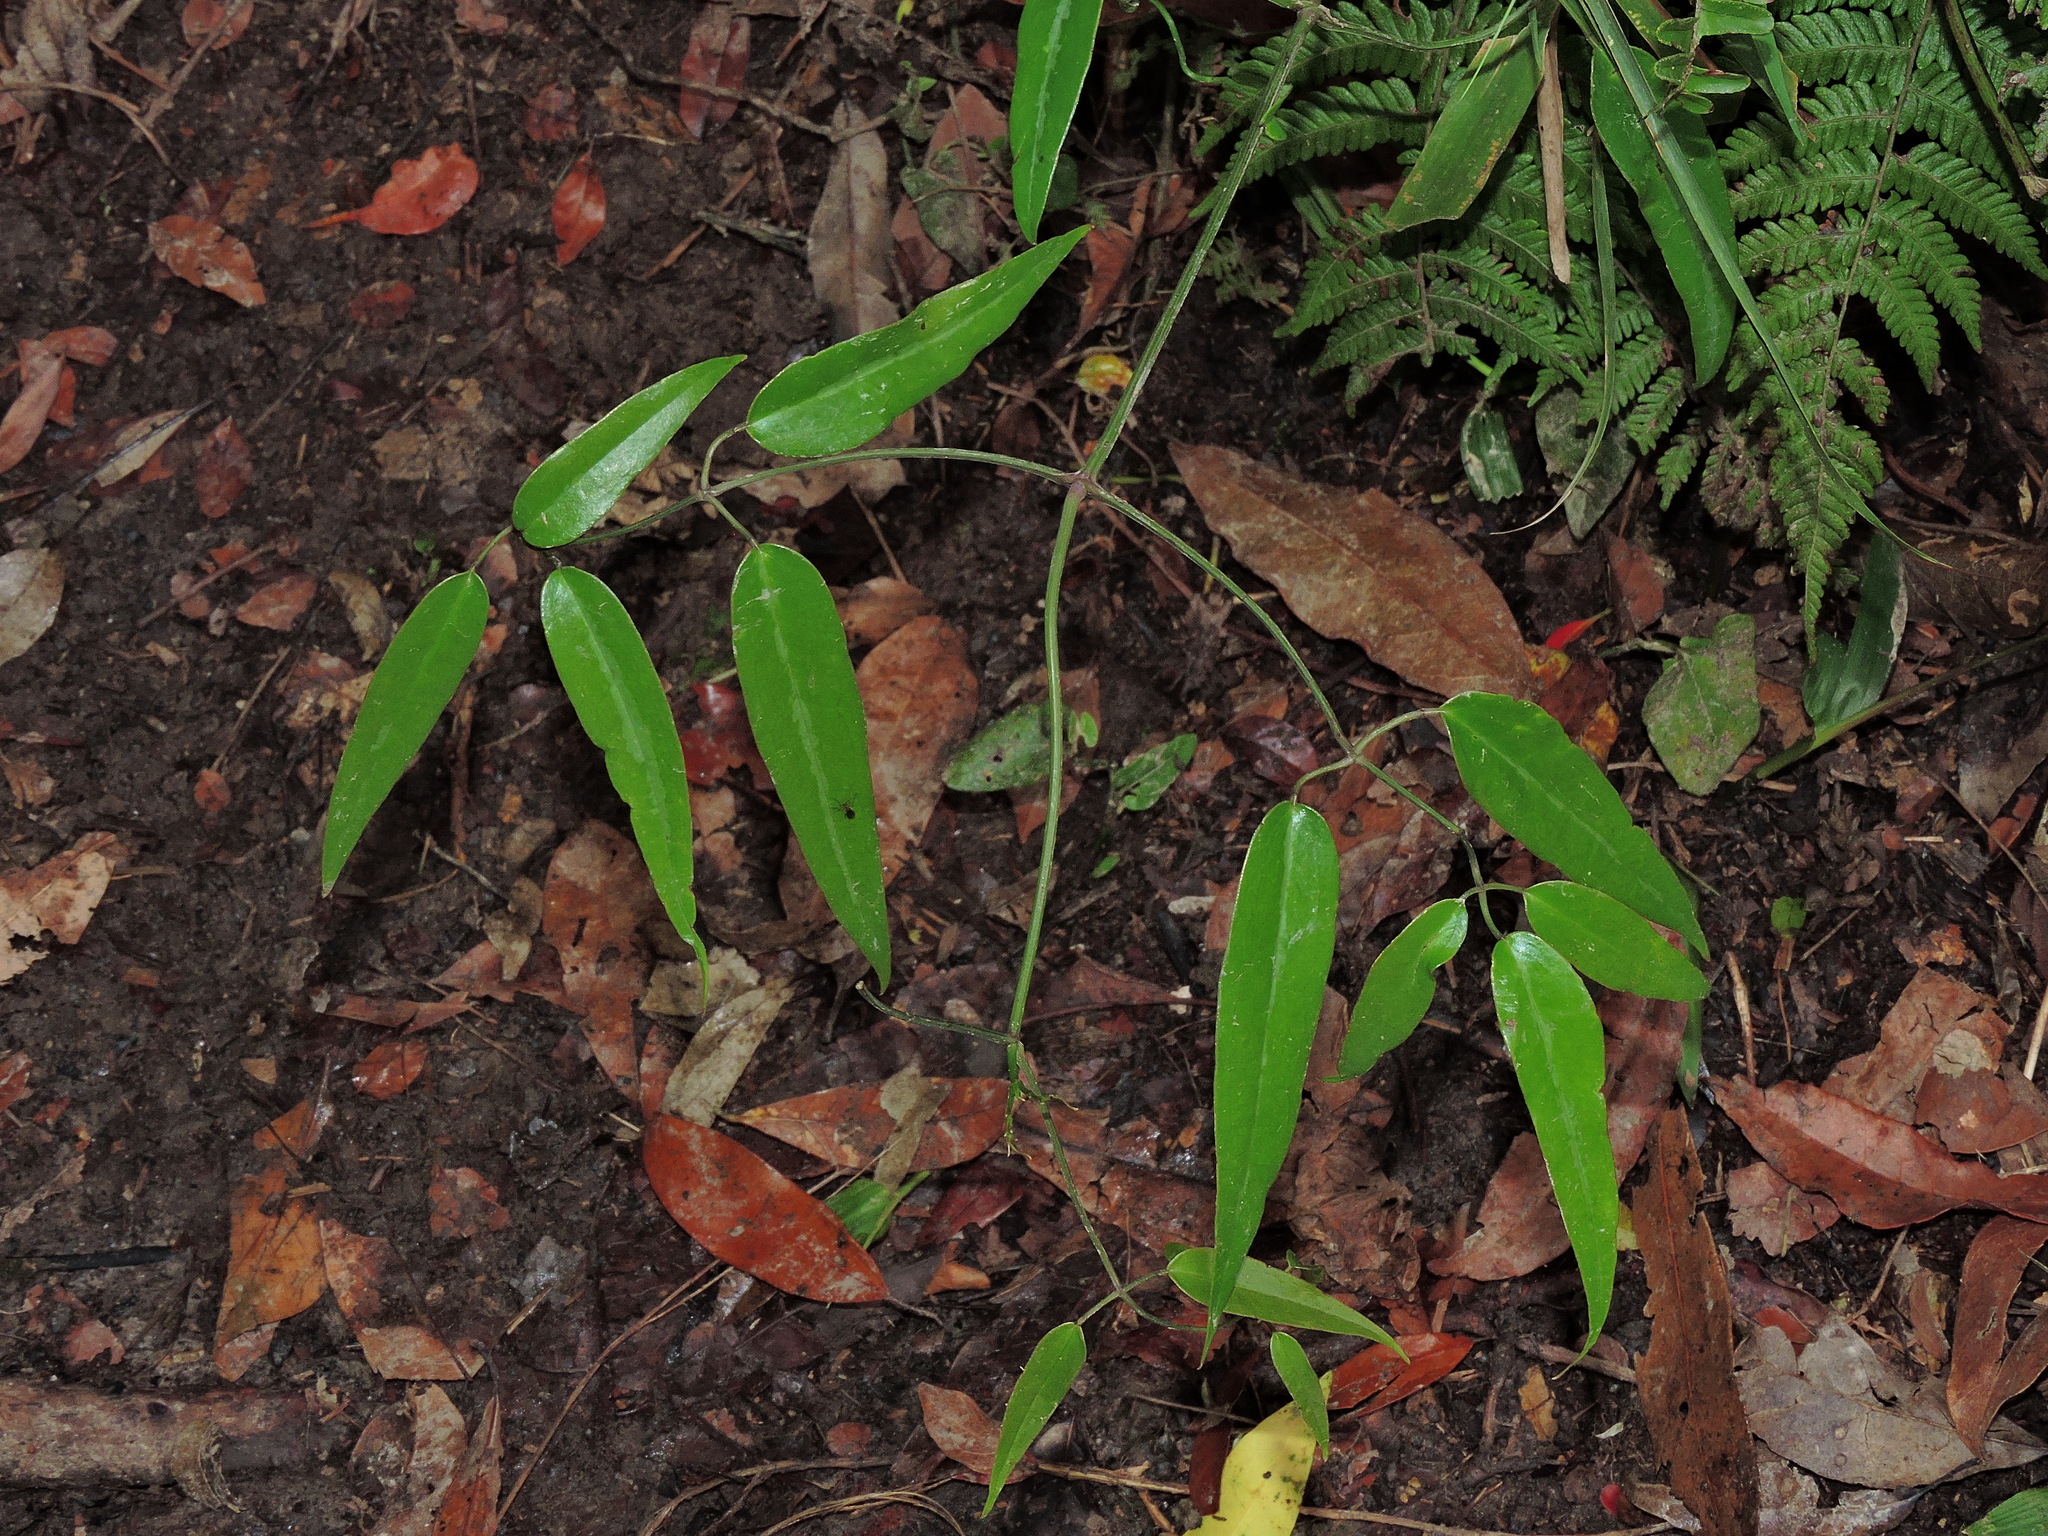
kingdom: Plantae
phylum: Tracheophyta
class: Magnoliopsida
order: Ranunculales
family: Ranunculaceae
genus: Clematis
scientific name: Clematis uncinata
